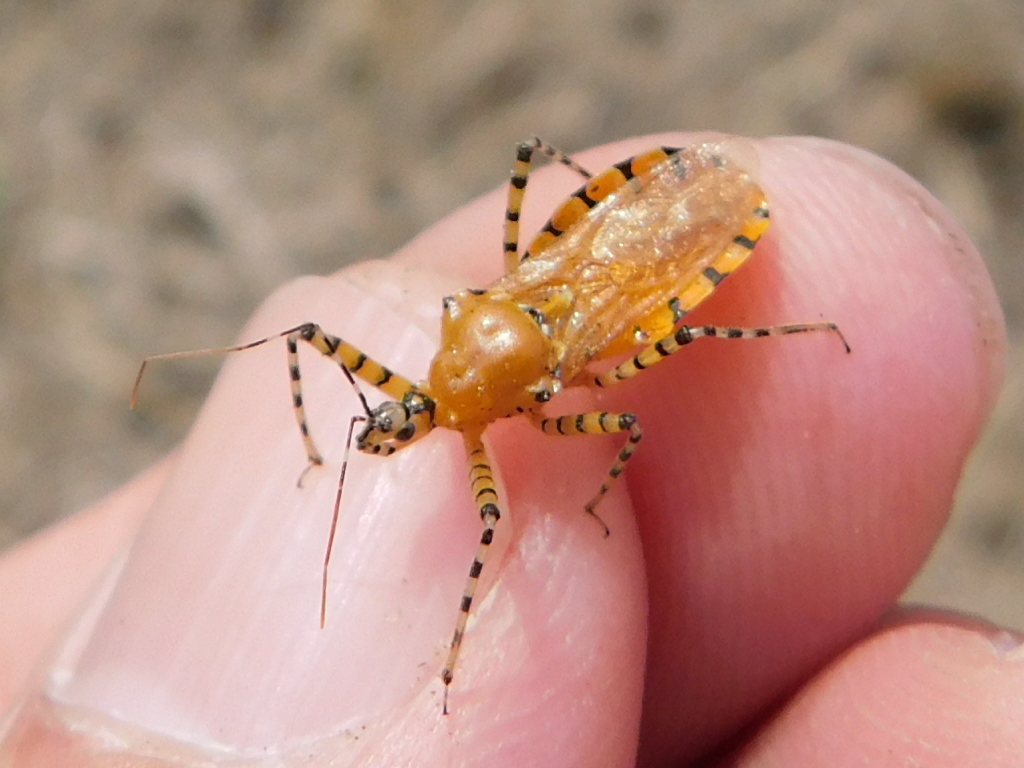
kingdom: Animalia
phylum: Arthropoda
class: Insecta
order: Hemiptera
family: Reduviidae
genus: Pselliopus
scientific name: Pselliopus barberi
